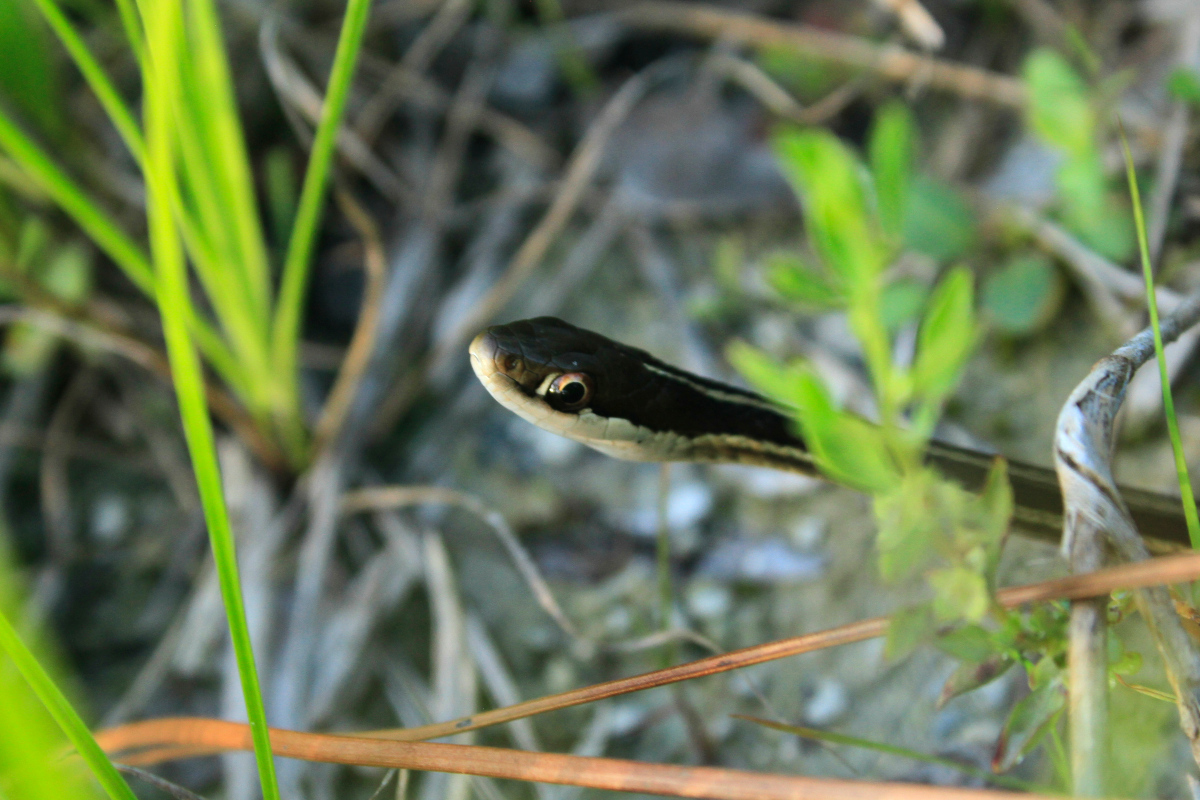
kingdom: Animalia
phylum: Chordata
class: Squamata
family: Colubridae
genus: Thamnophis
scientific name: Thamnophis saurita
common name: Eastern ribbonsnake
